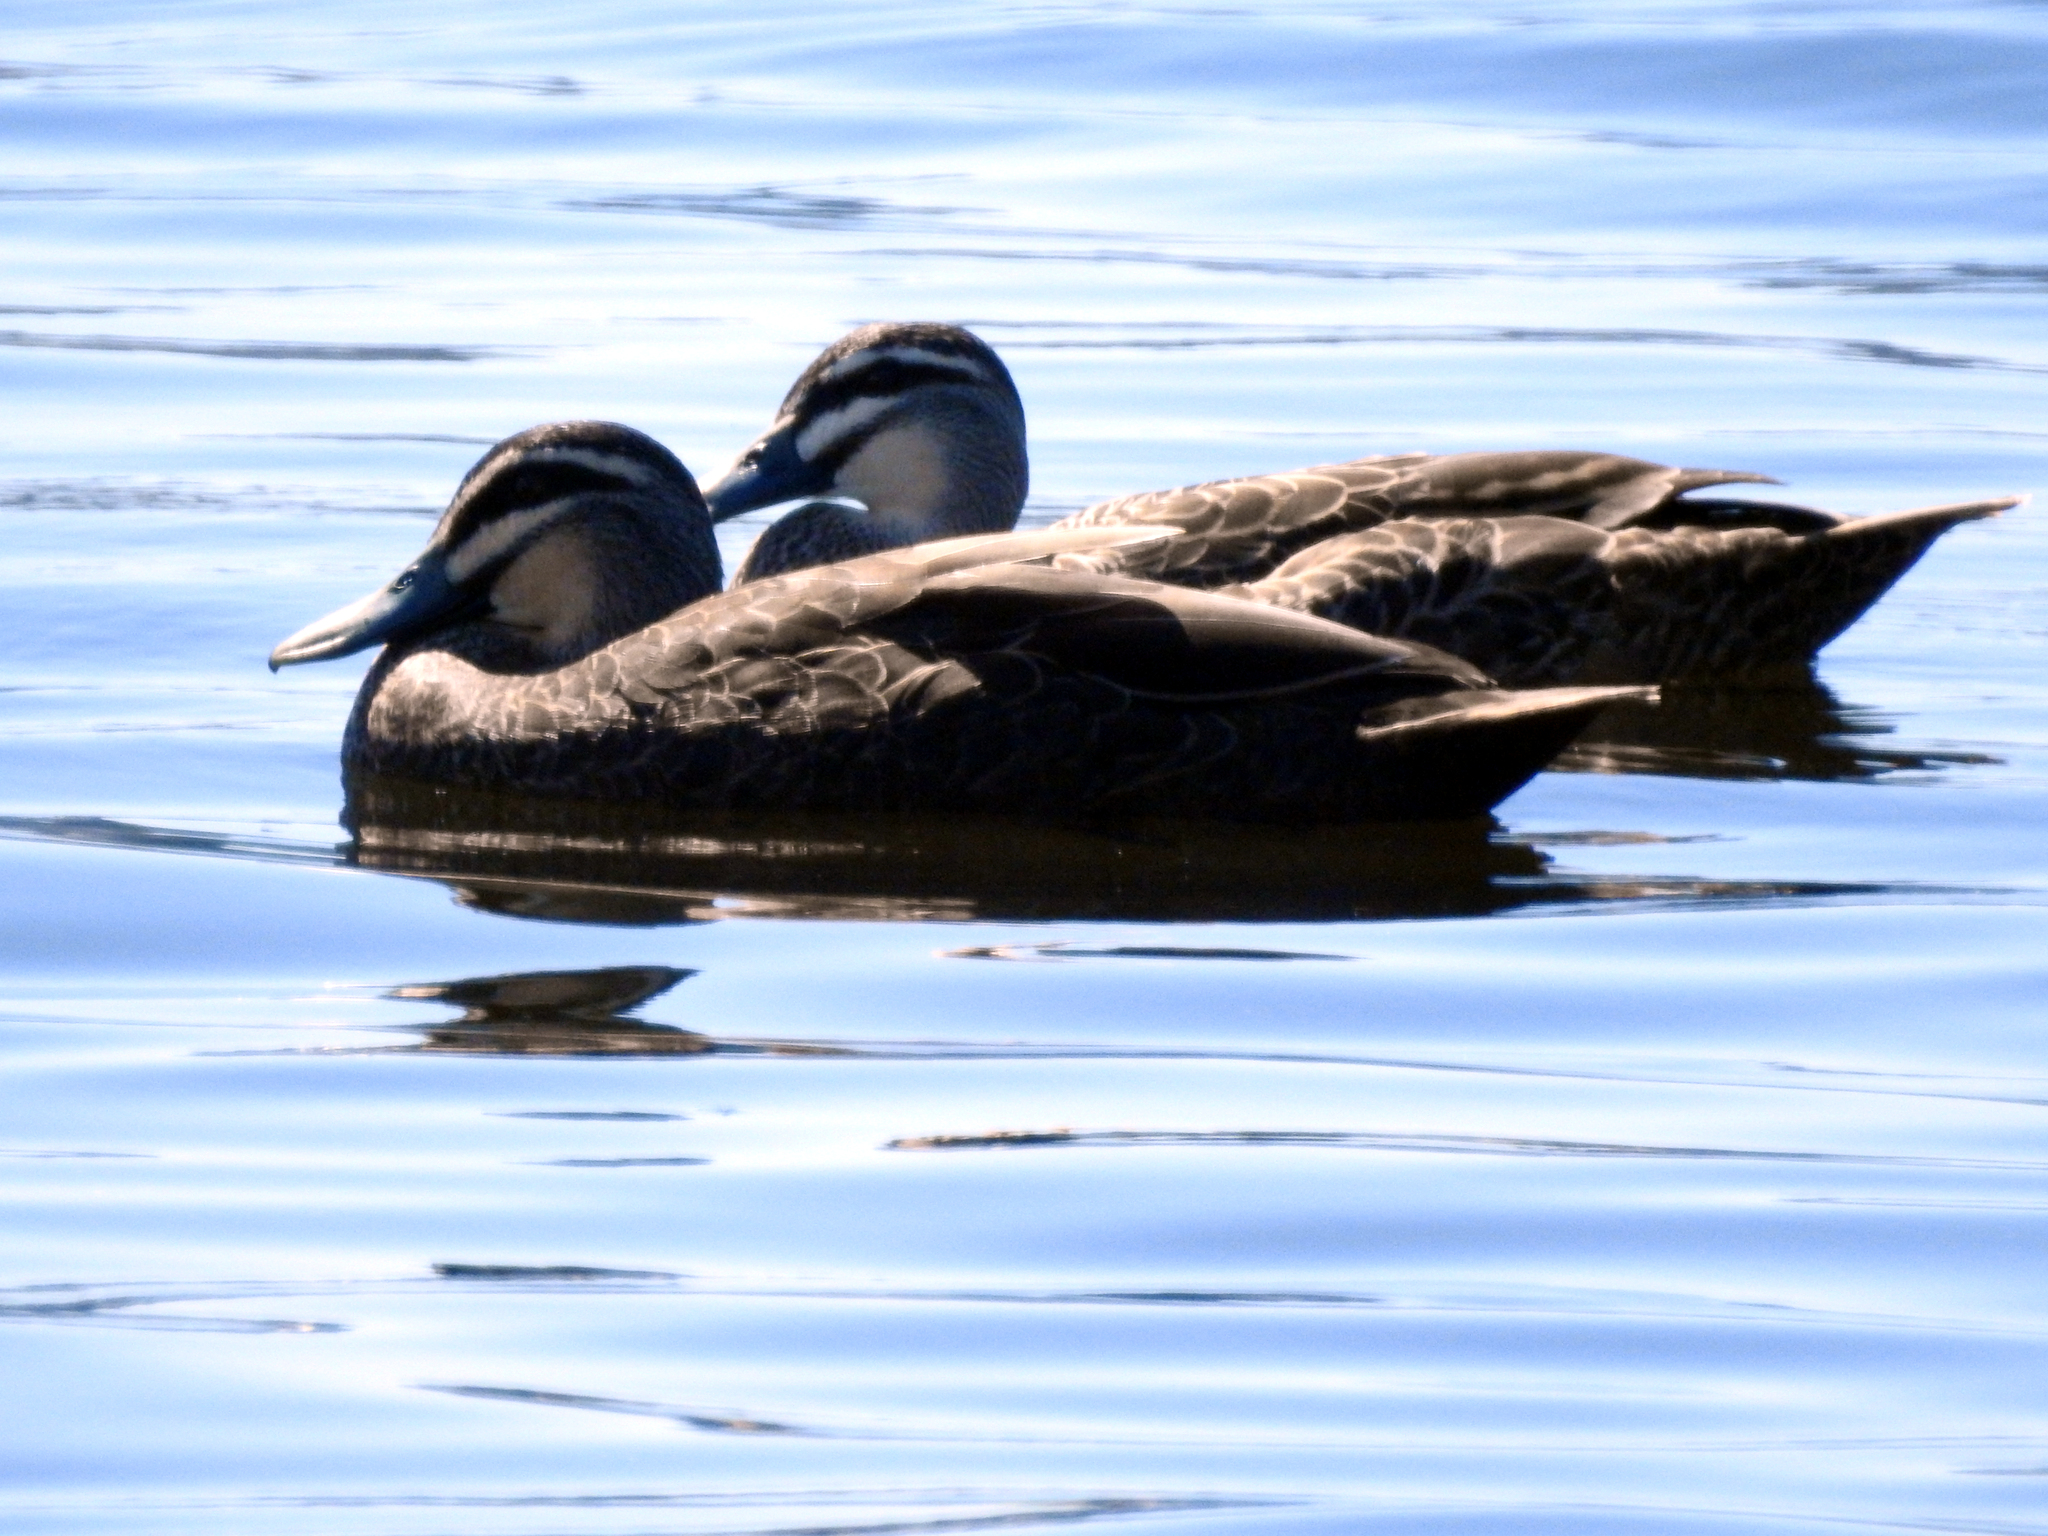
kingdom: Animalia
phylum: Chordata
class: Aves
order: Anseriformes
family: Anatidae
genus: Anas
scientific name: Anas superciliosa
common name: Pacific black duck
